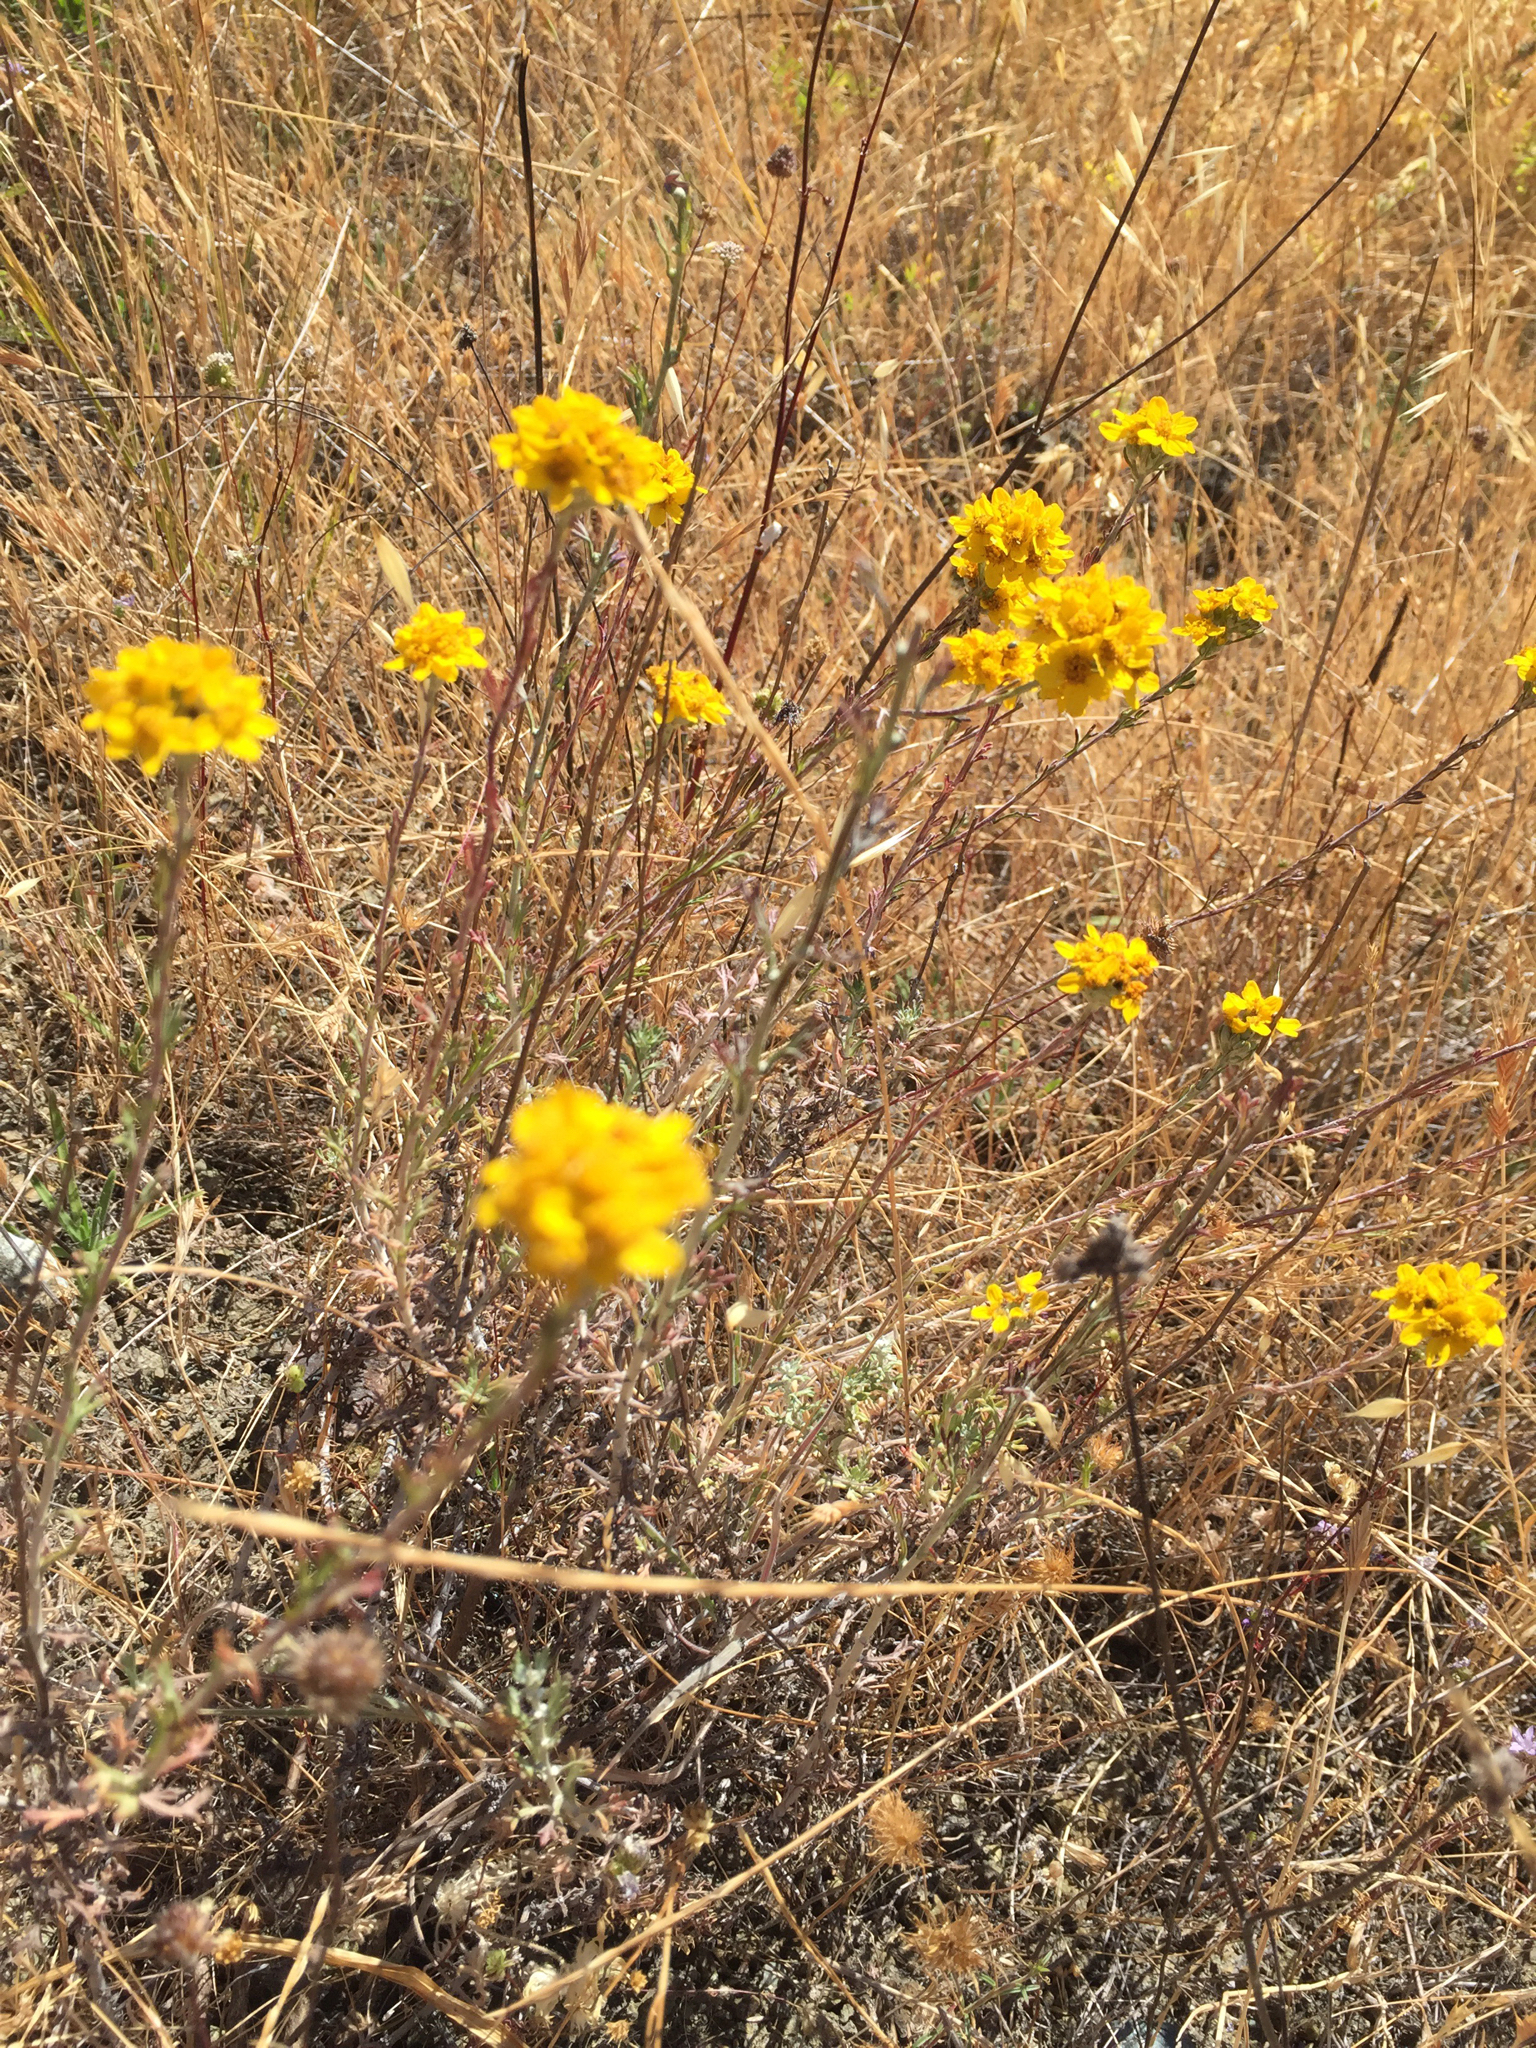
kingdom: Plantae
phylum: Tracheophyta
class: Magnoliopsida
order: Asterales
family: Asteraceae
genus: Eriophyllum
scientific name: Eriophyllum confertiflorum
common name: Golden-yarrow
